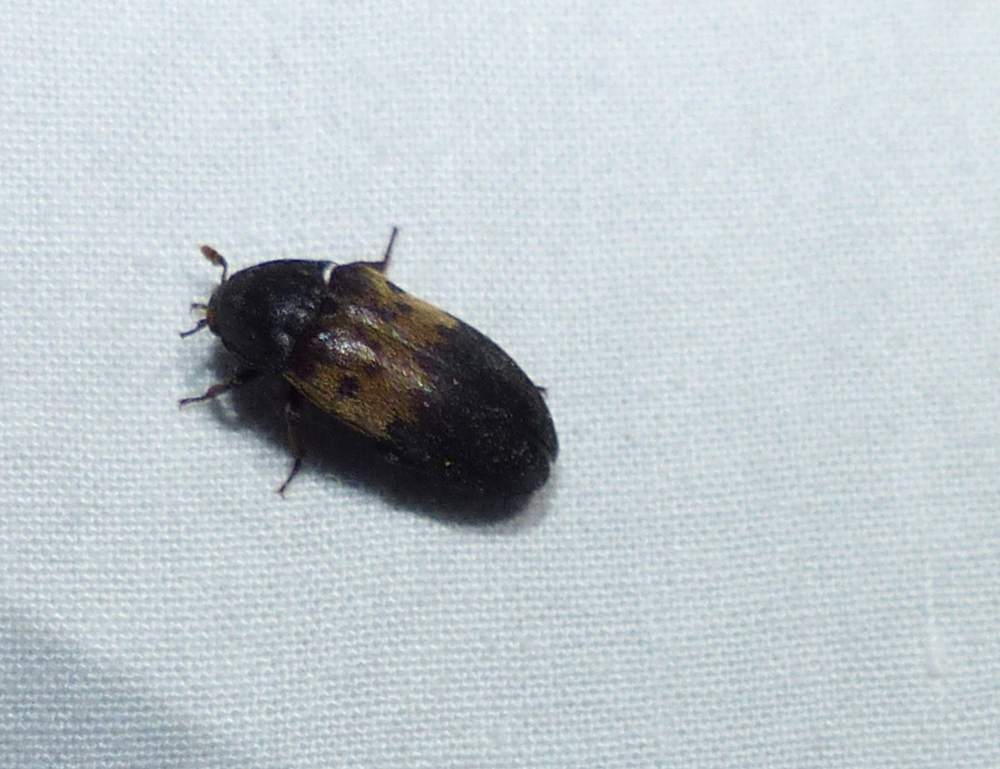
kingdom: Animalia
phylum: Arthropoda
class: Insecta
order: Coleoptera
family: Dermestidae
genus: Dermestes
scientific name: Dermestes lardarius
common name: Larder beetle
